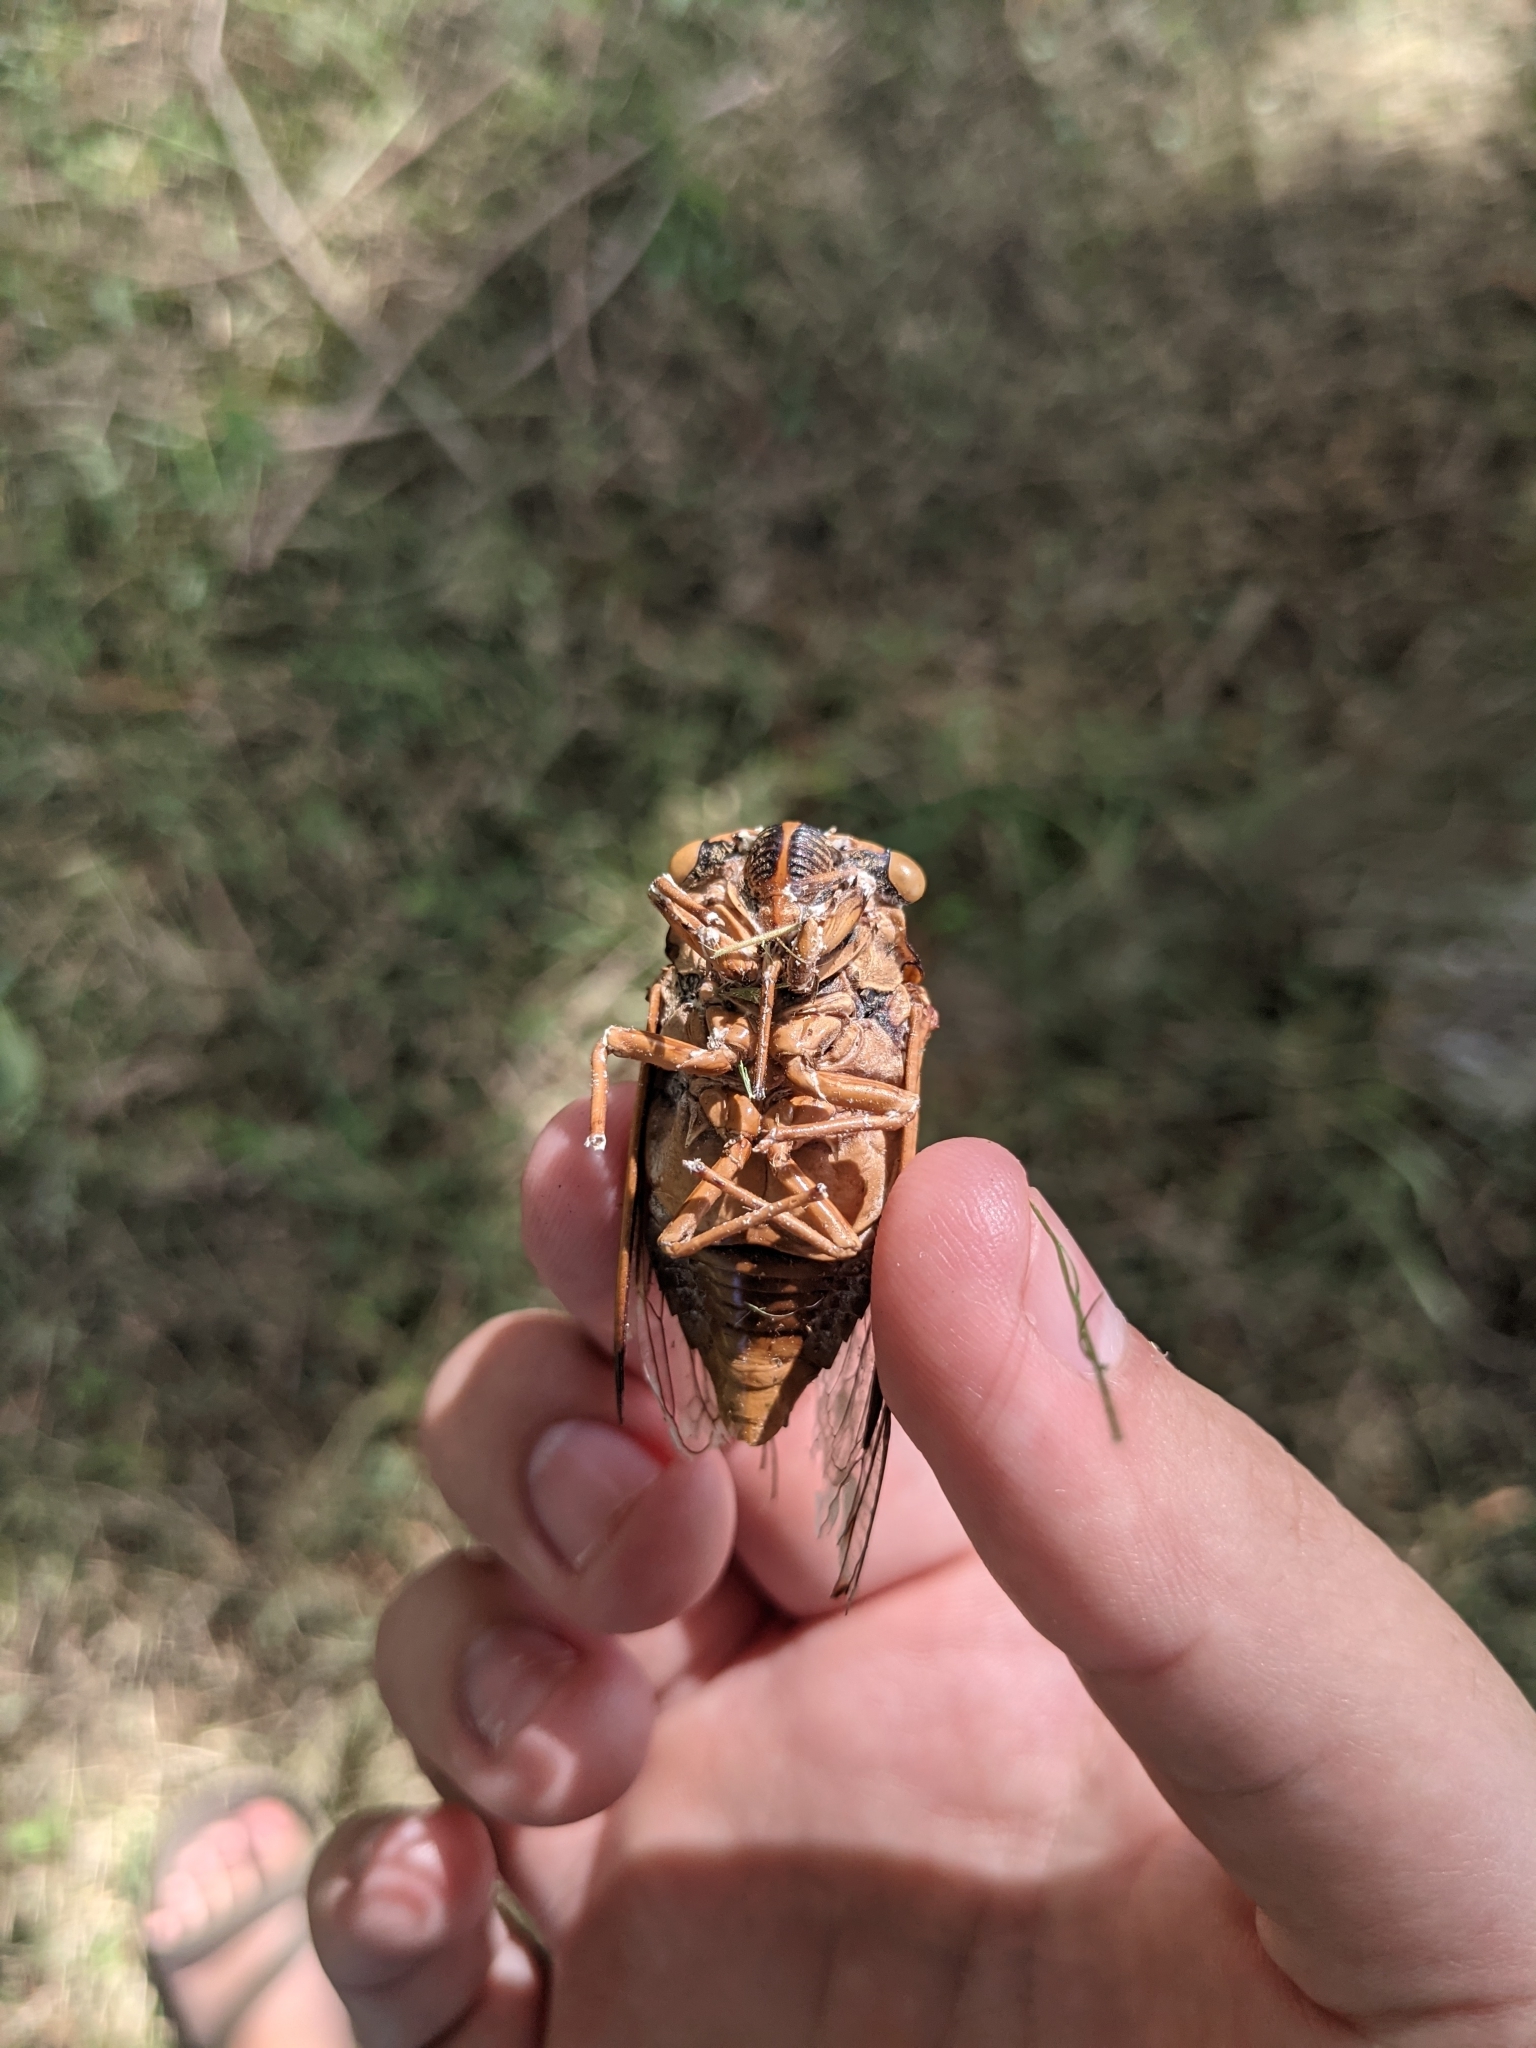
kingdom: Animalia
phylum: Arthropoda
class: Insecta
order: Hemiptera
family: Cicadidae
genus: Megatibicen
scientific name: Megatibicen resh
